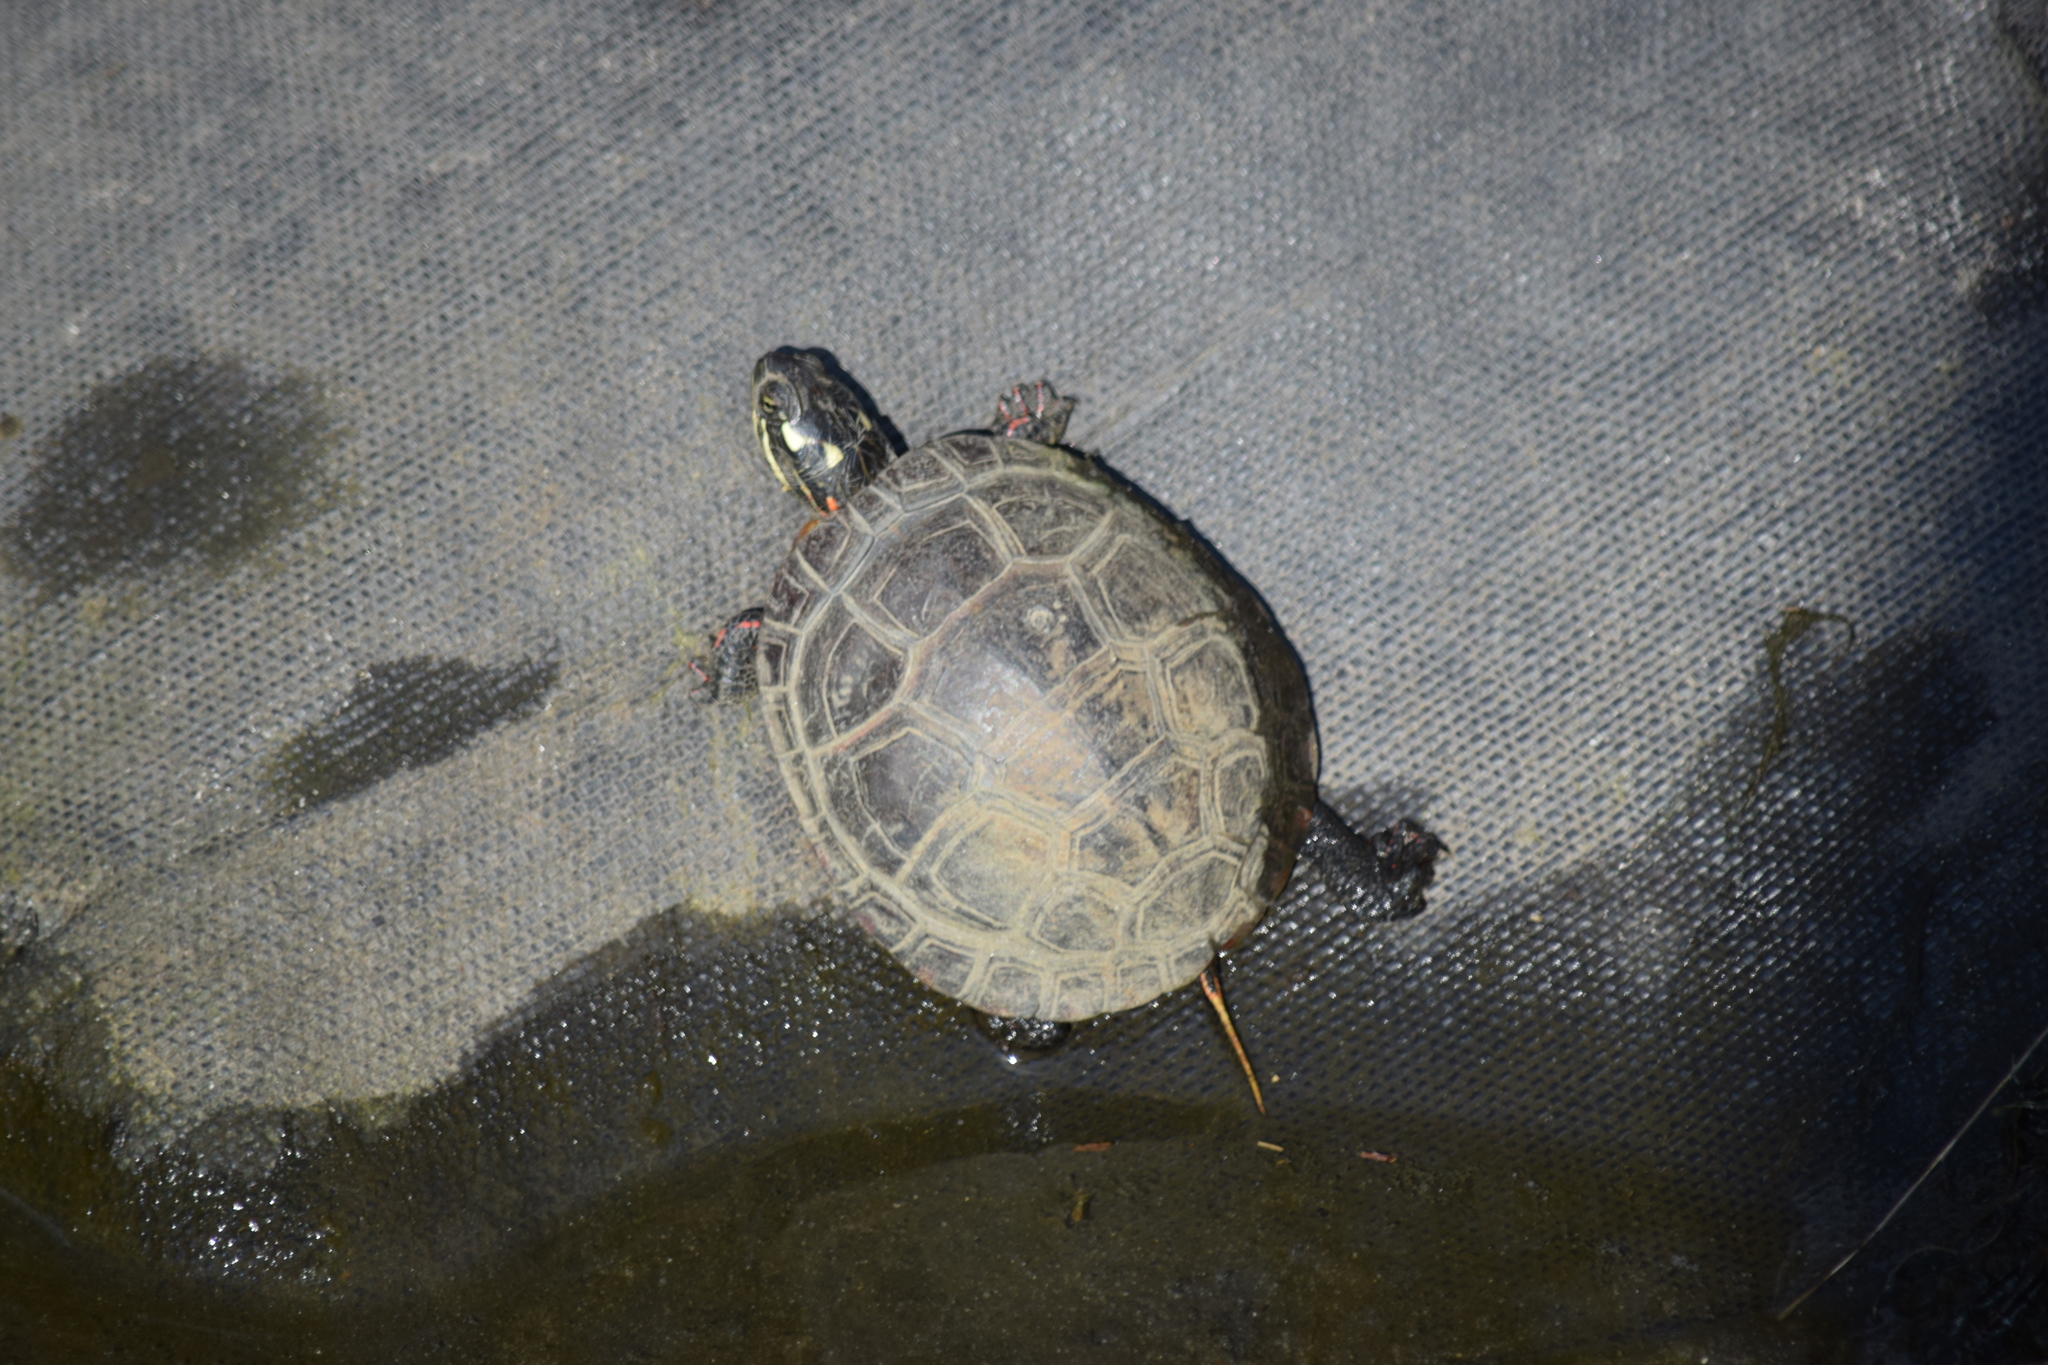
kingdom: Animalia
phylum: Chordata
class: Testudines
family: Emydidae
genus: Chrysemys
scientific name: Chrysemys picta
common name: Painted turtle
